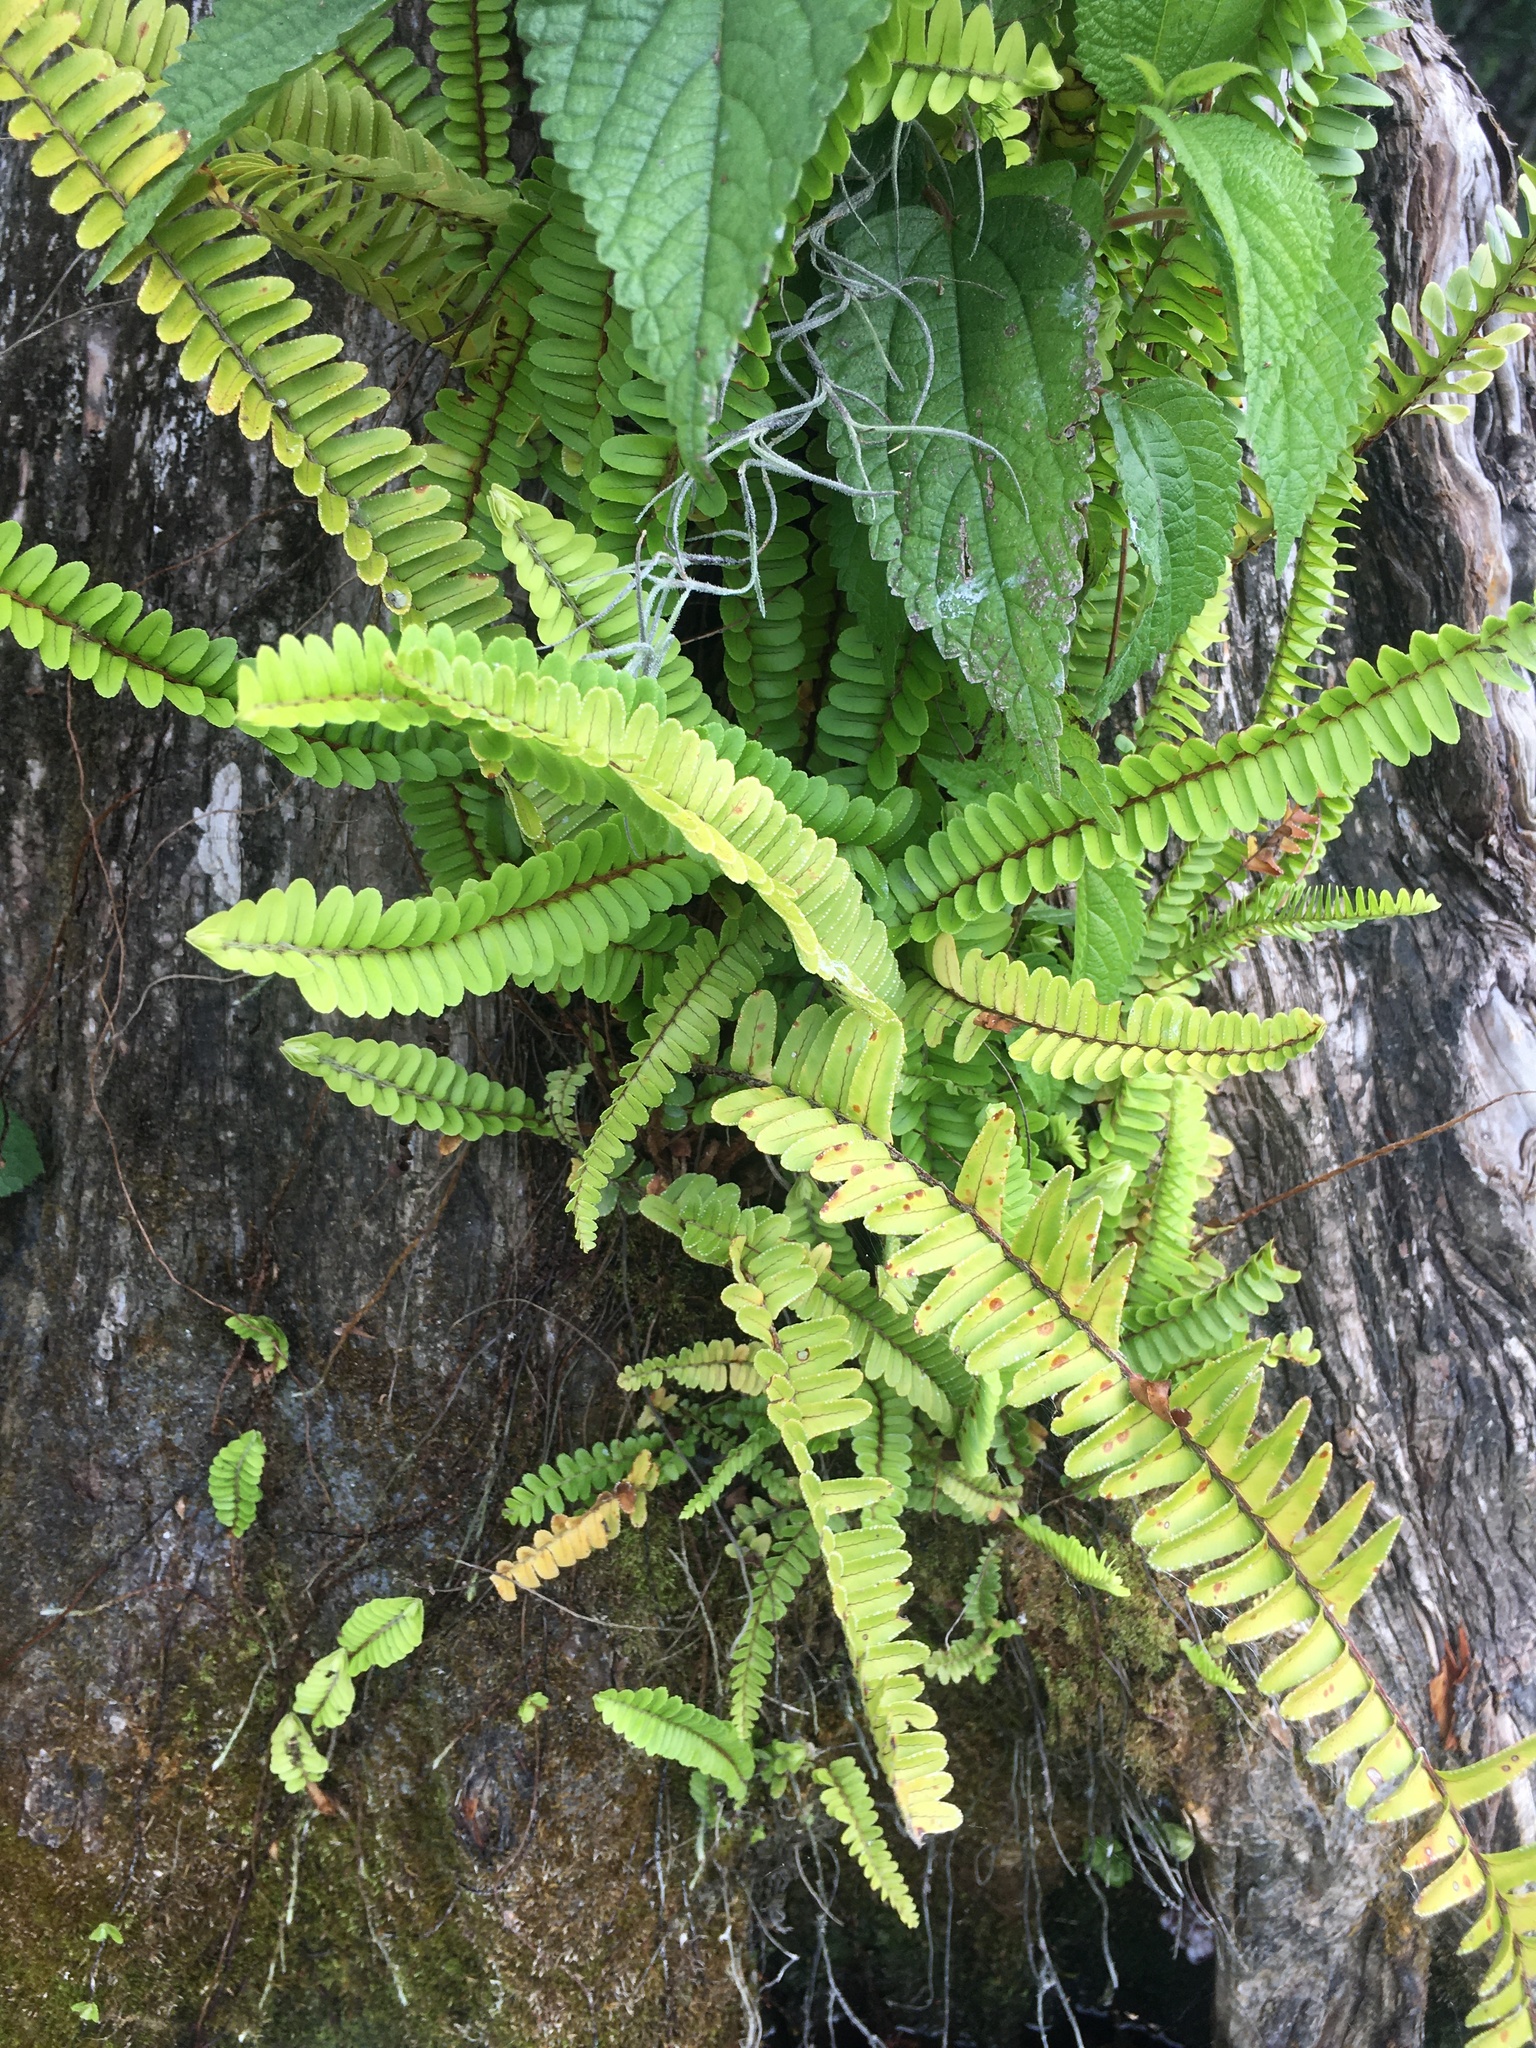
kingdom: Plantae
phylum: Tracheophyta
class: Polypodiopsida
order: Polypodiales
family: Nephrolepidaceae
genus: Nephrolepis
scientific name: Nephrolepis cordifolia
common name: Narrow swordfern
